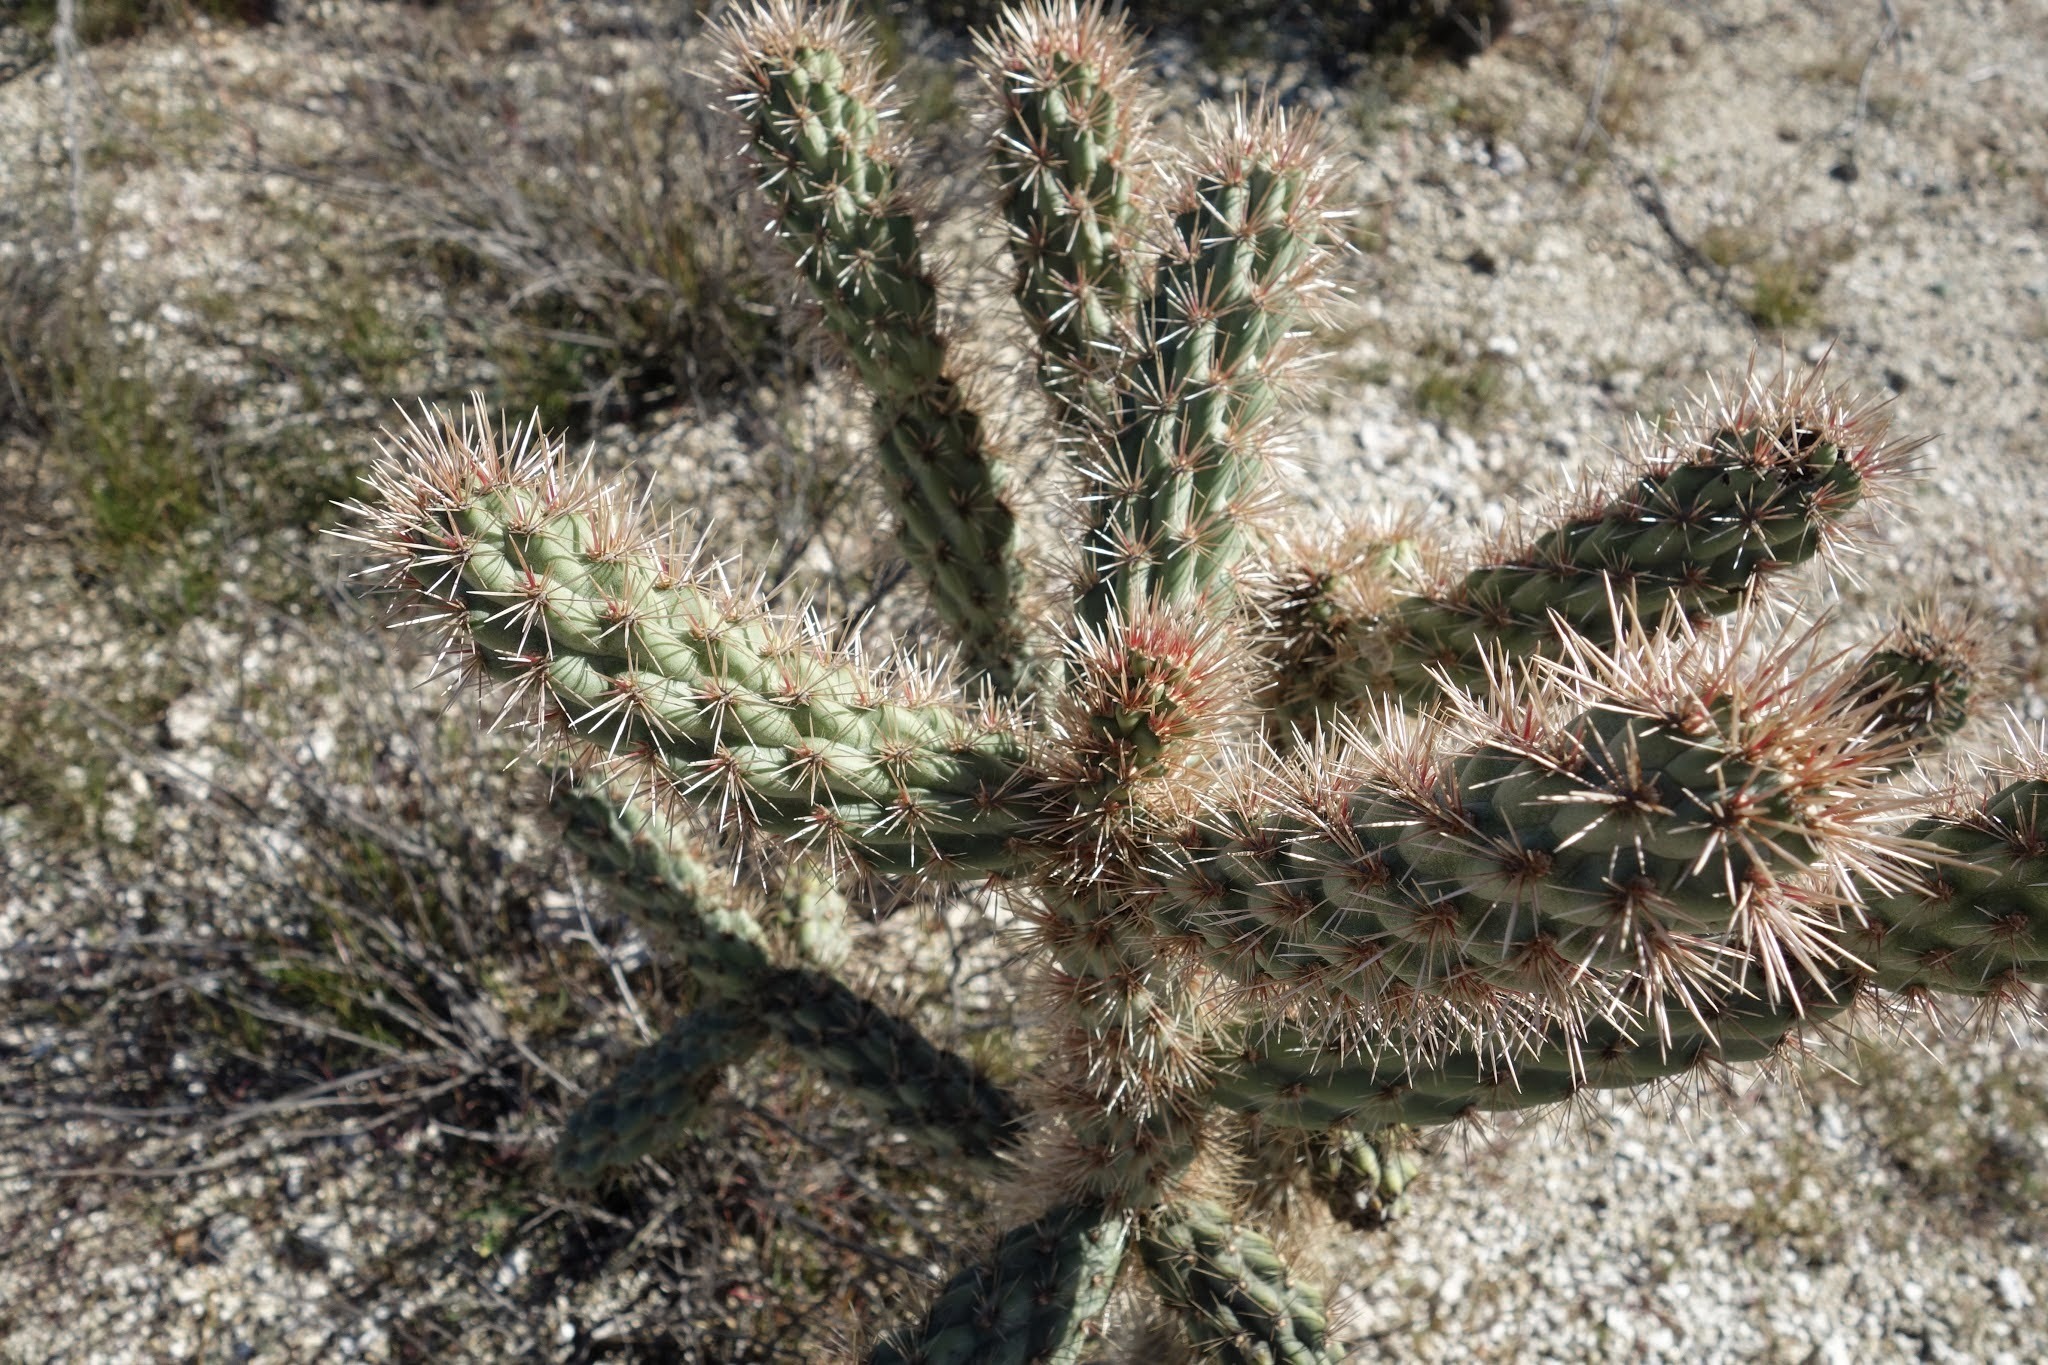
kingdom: Plantae
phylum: Tracheophyta
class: Magnoliopsida
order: Caryophyllales
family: Cactaceae
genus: Cylindropuntia
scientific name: Cylindropuntia prolifera
